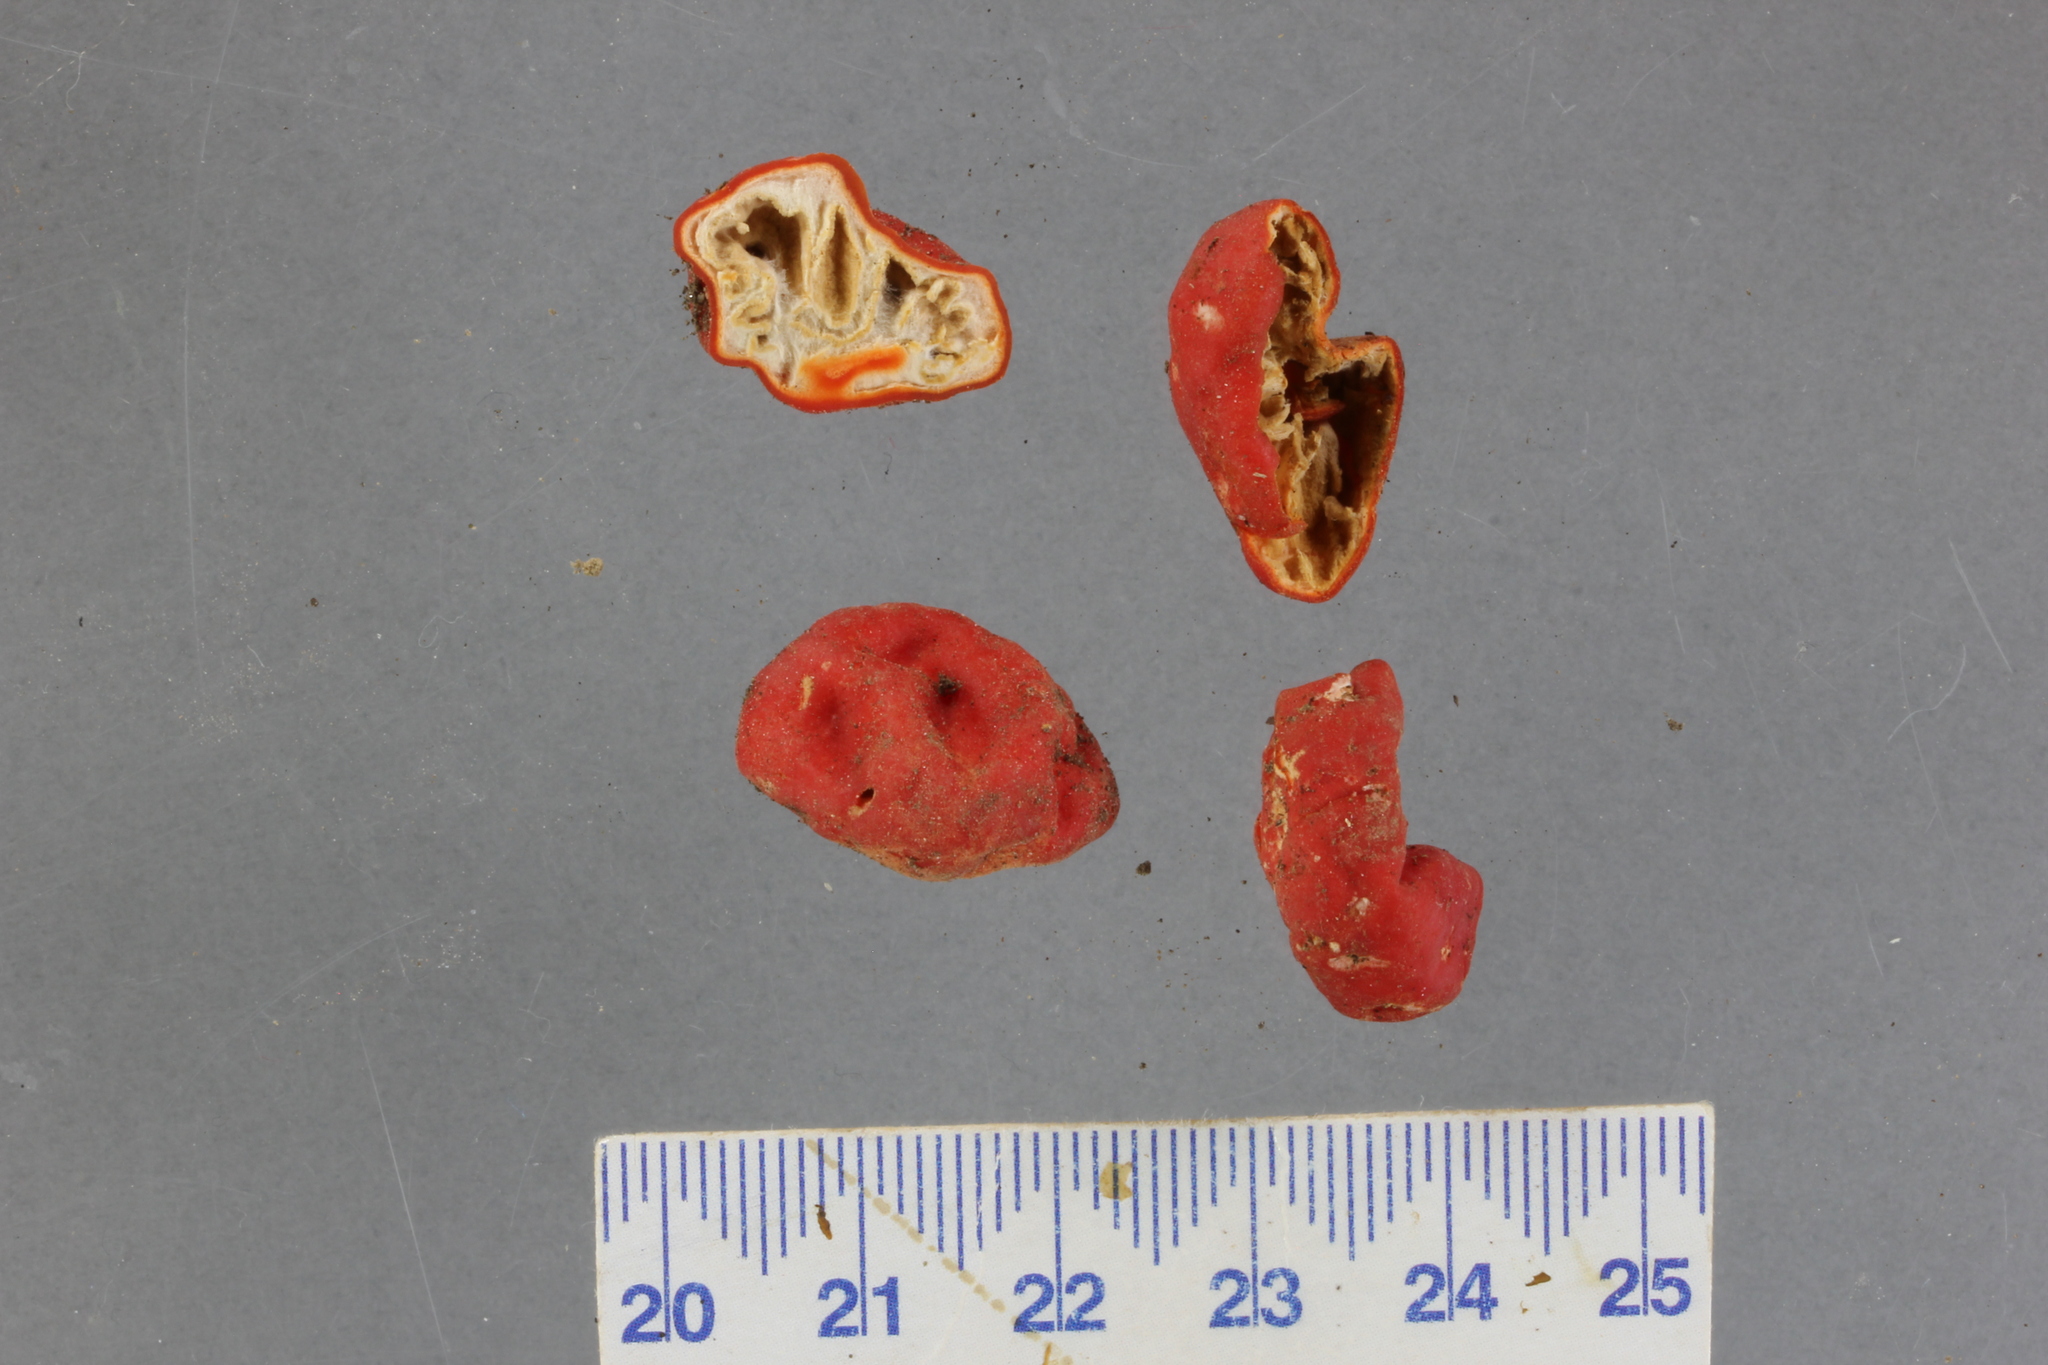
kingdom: Fungi
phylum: Ascomycota
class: Pezizomycetes
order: Pezizales
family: Pyronemataceae
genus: Paurocotylis
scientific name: Paurocotylis pila
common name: Scarlet berry truffle
